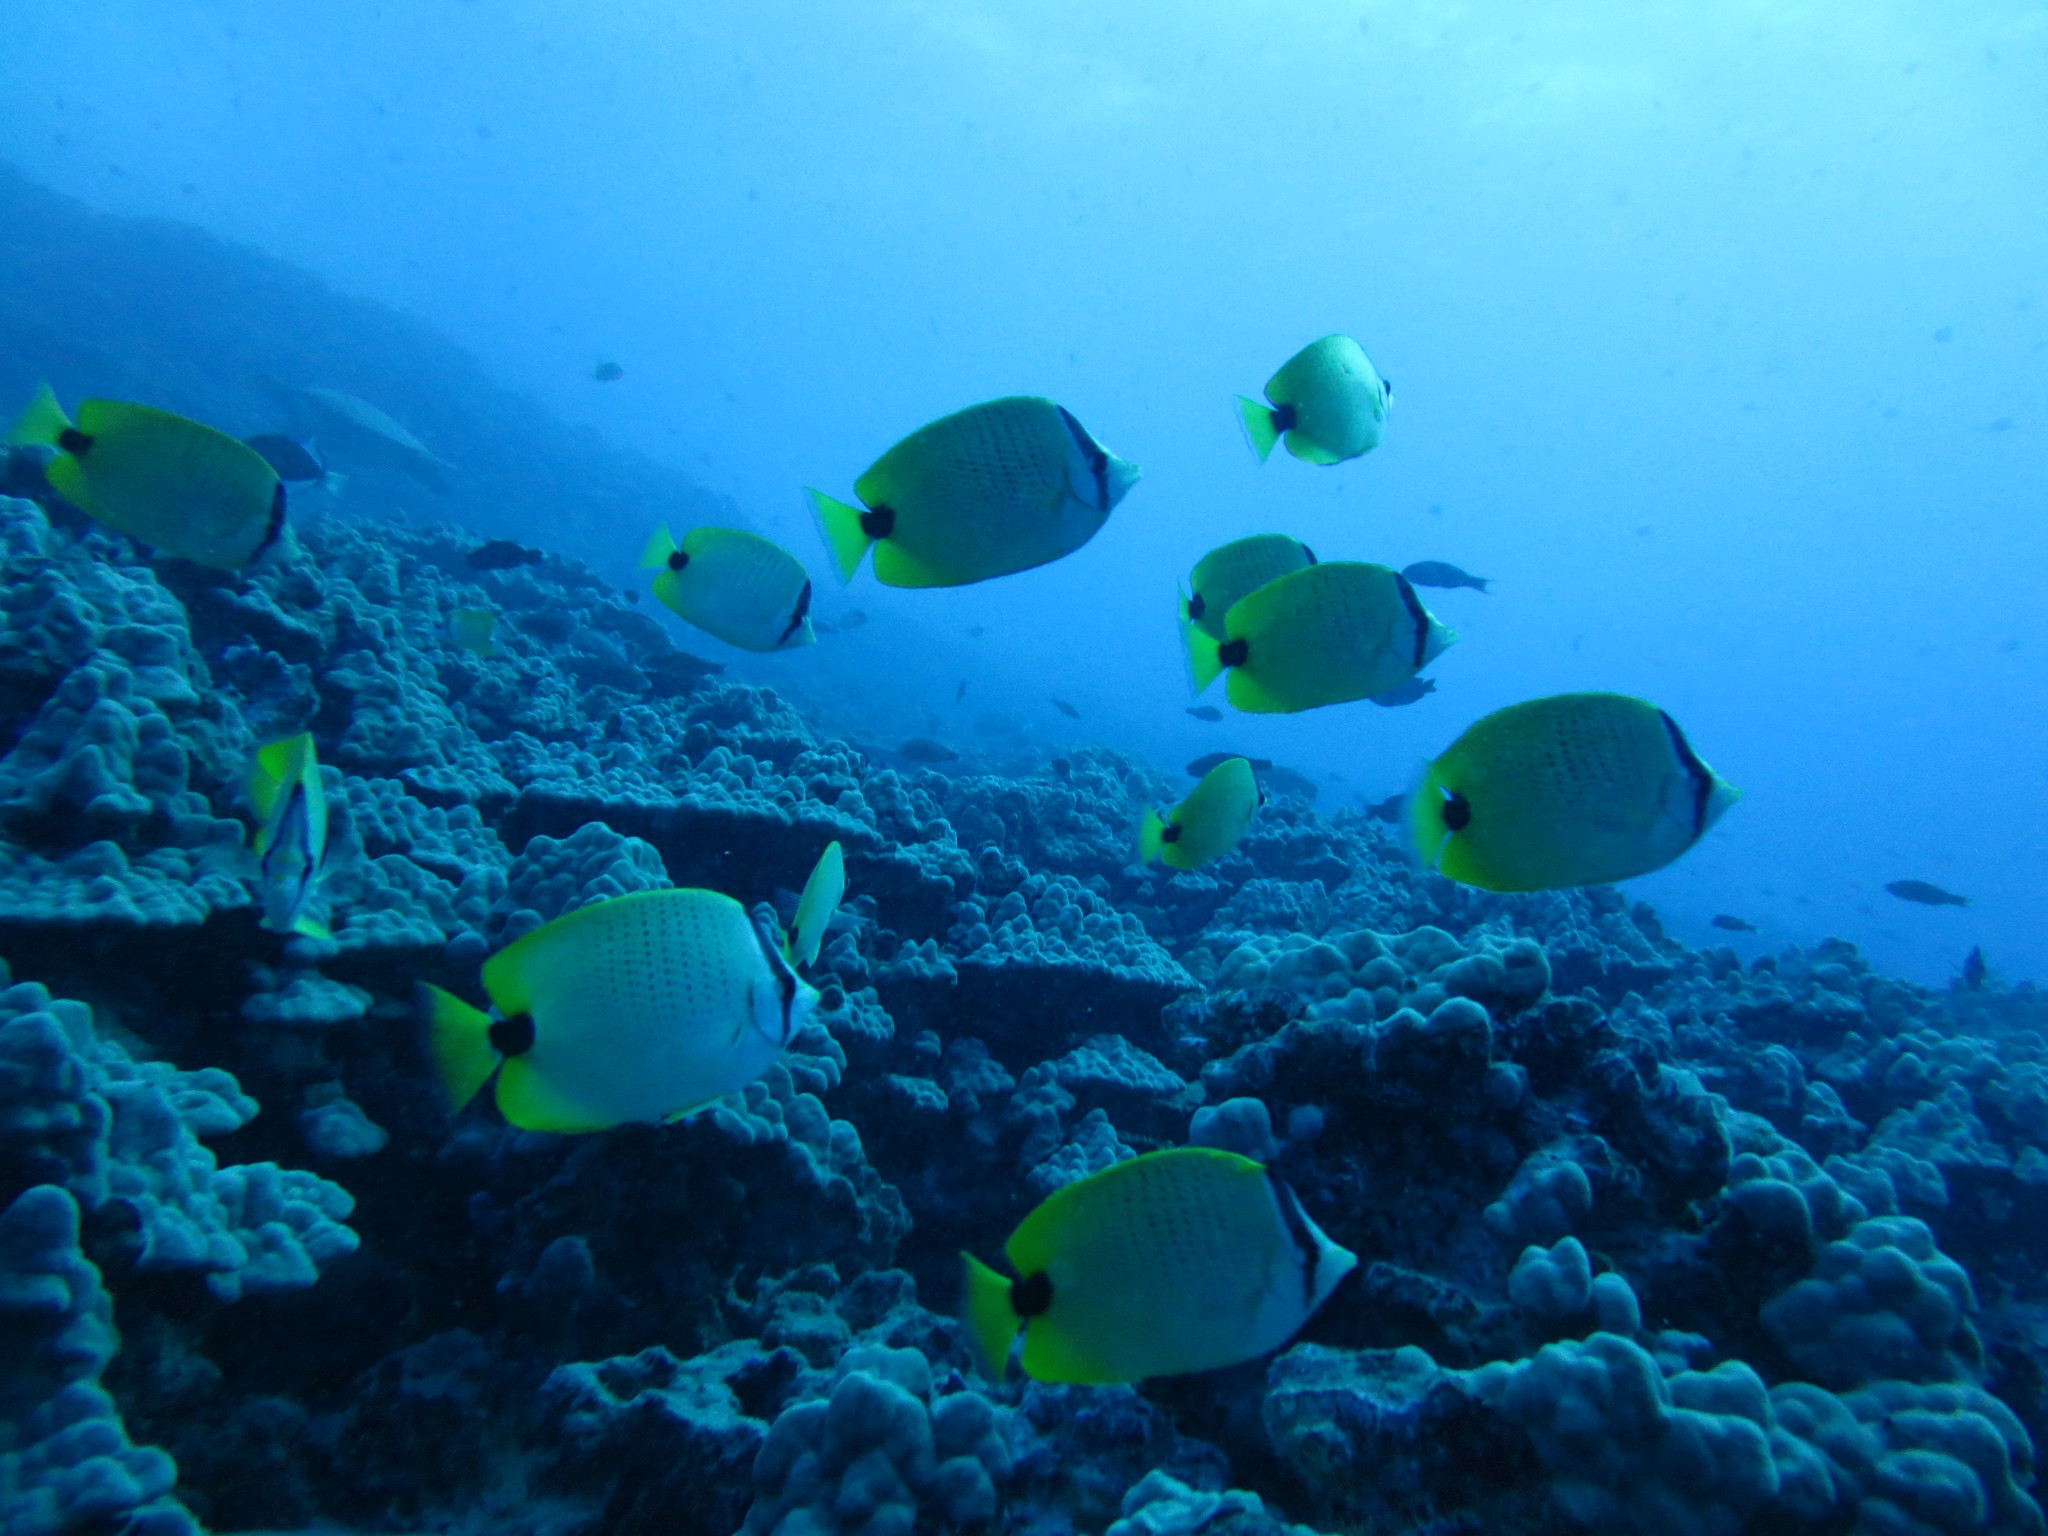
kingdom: Animalia
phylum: Chordata
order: Perciformes
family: Chaetodontidae
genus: Chaetodon
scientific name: Chaetodon miliaris
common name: Lemon butterflyfish
